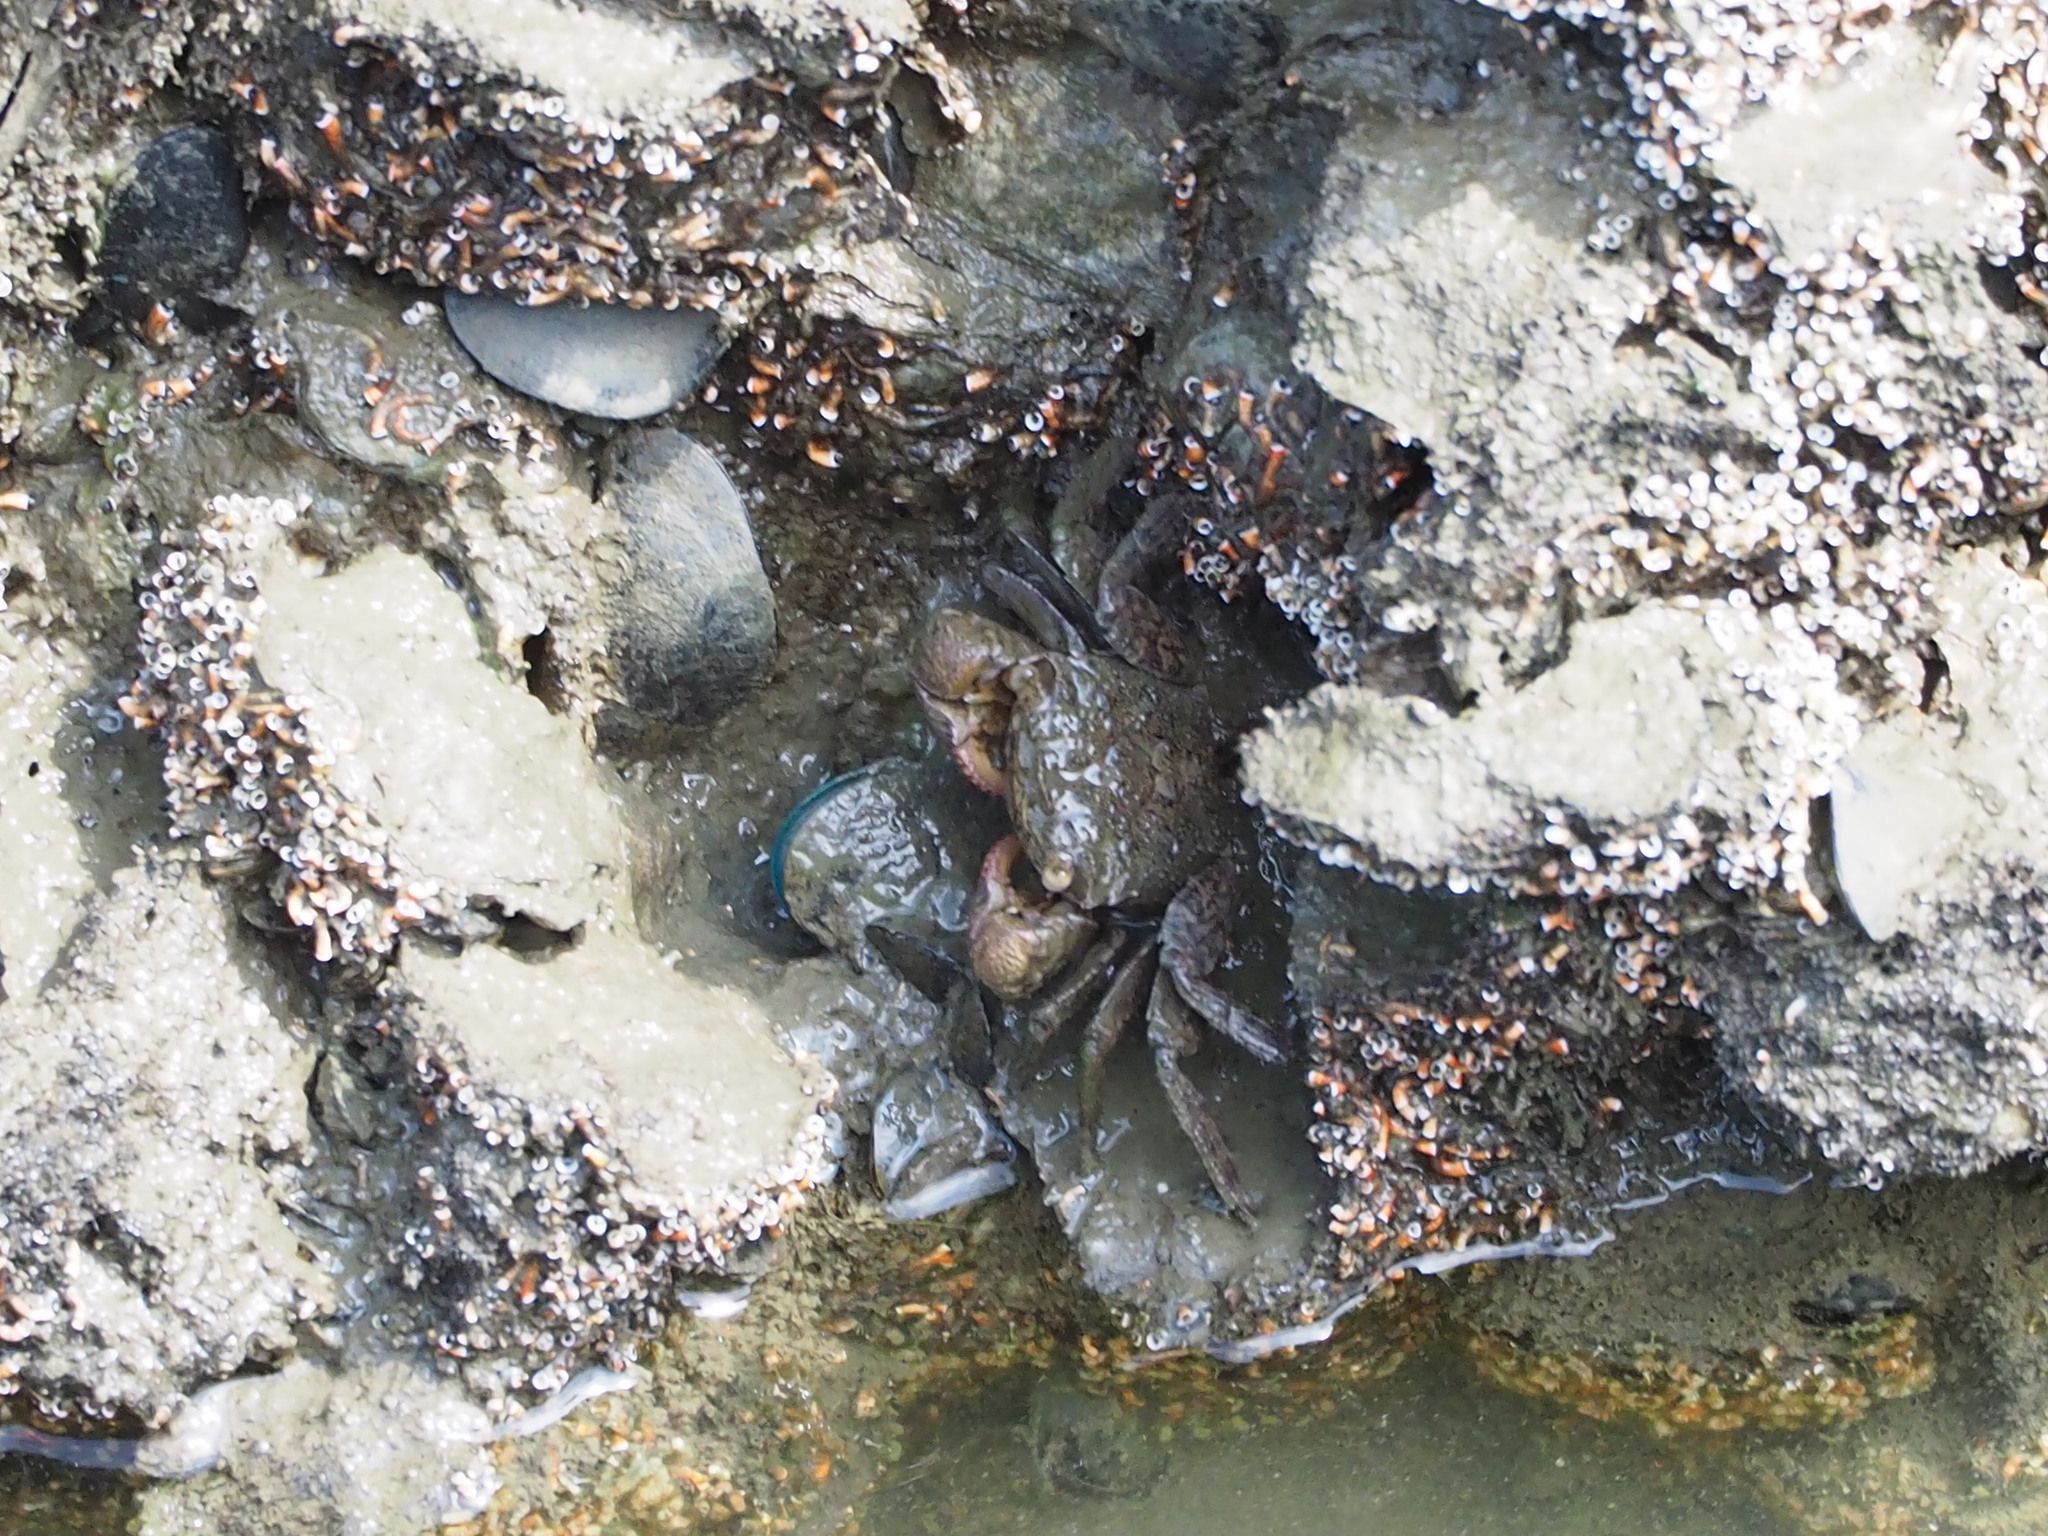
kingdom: Animalia
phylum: Arthropoda
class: Malacostraca
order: Decapoda
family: Sesarmidae
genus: Parasesarma
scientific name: Parasesarma bidens
